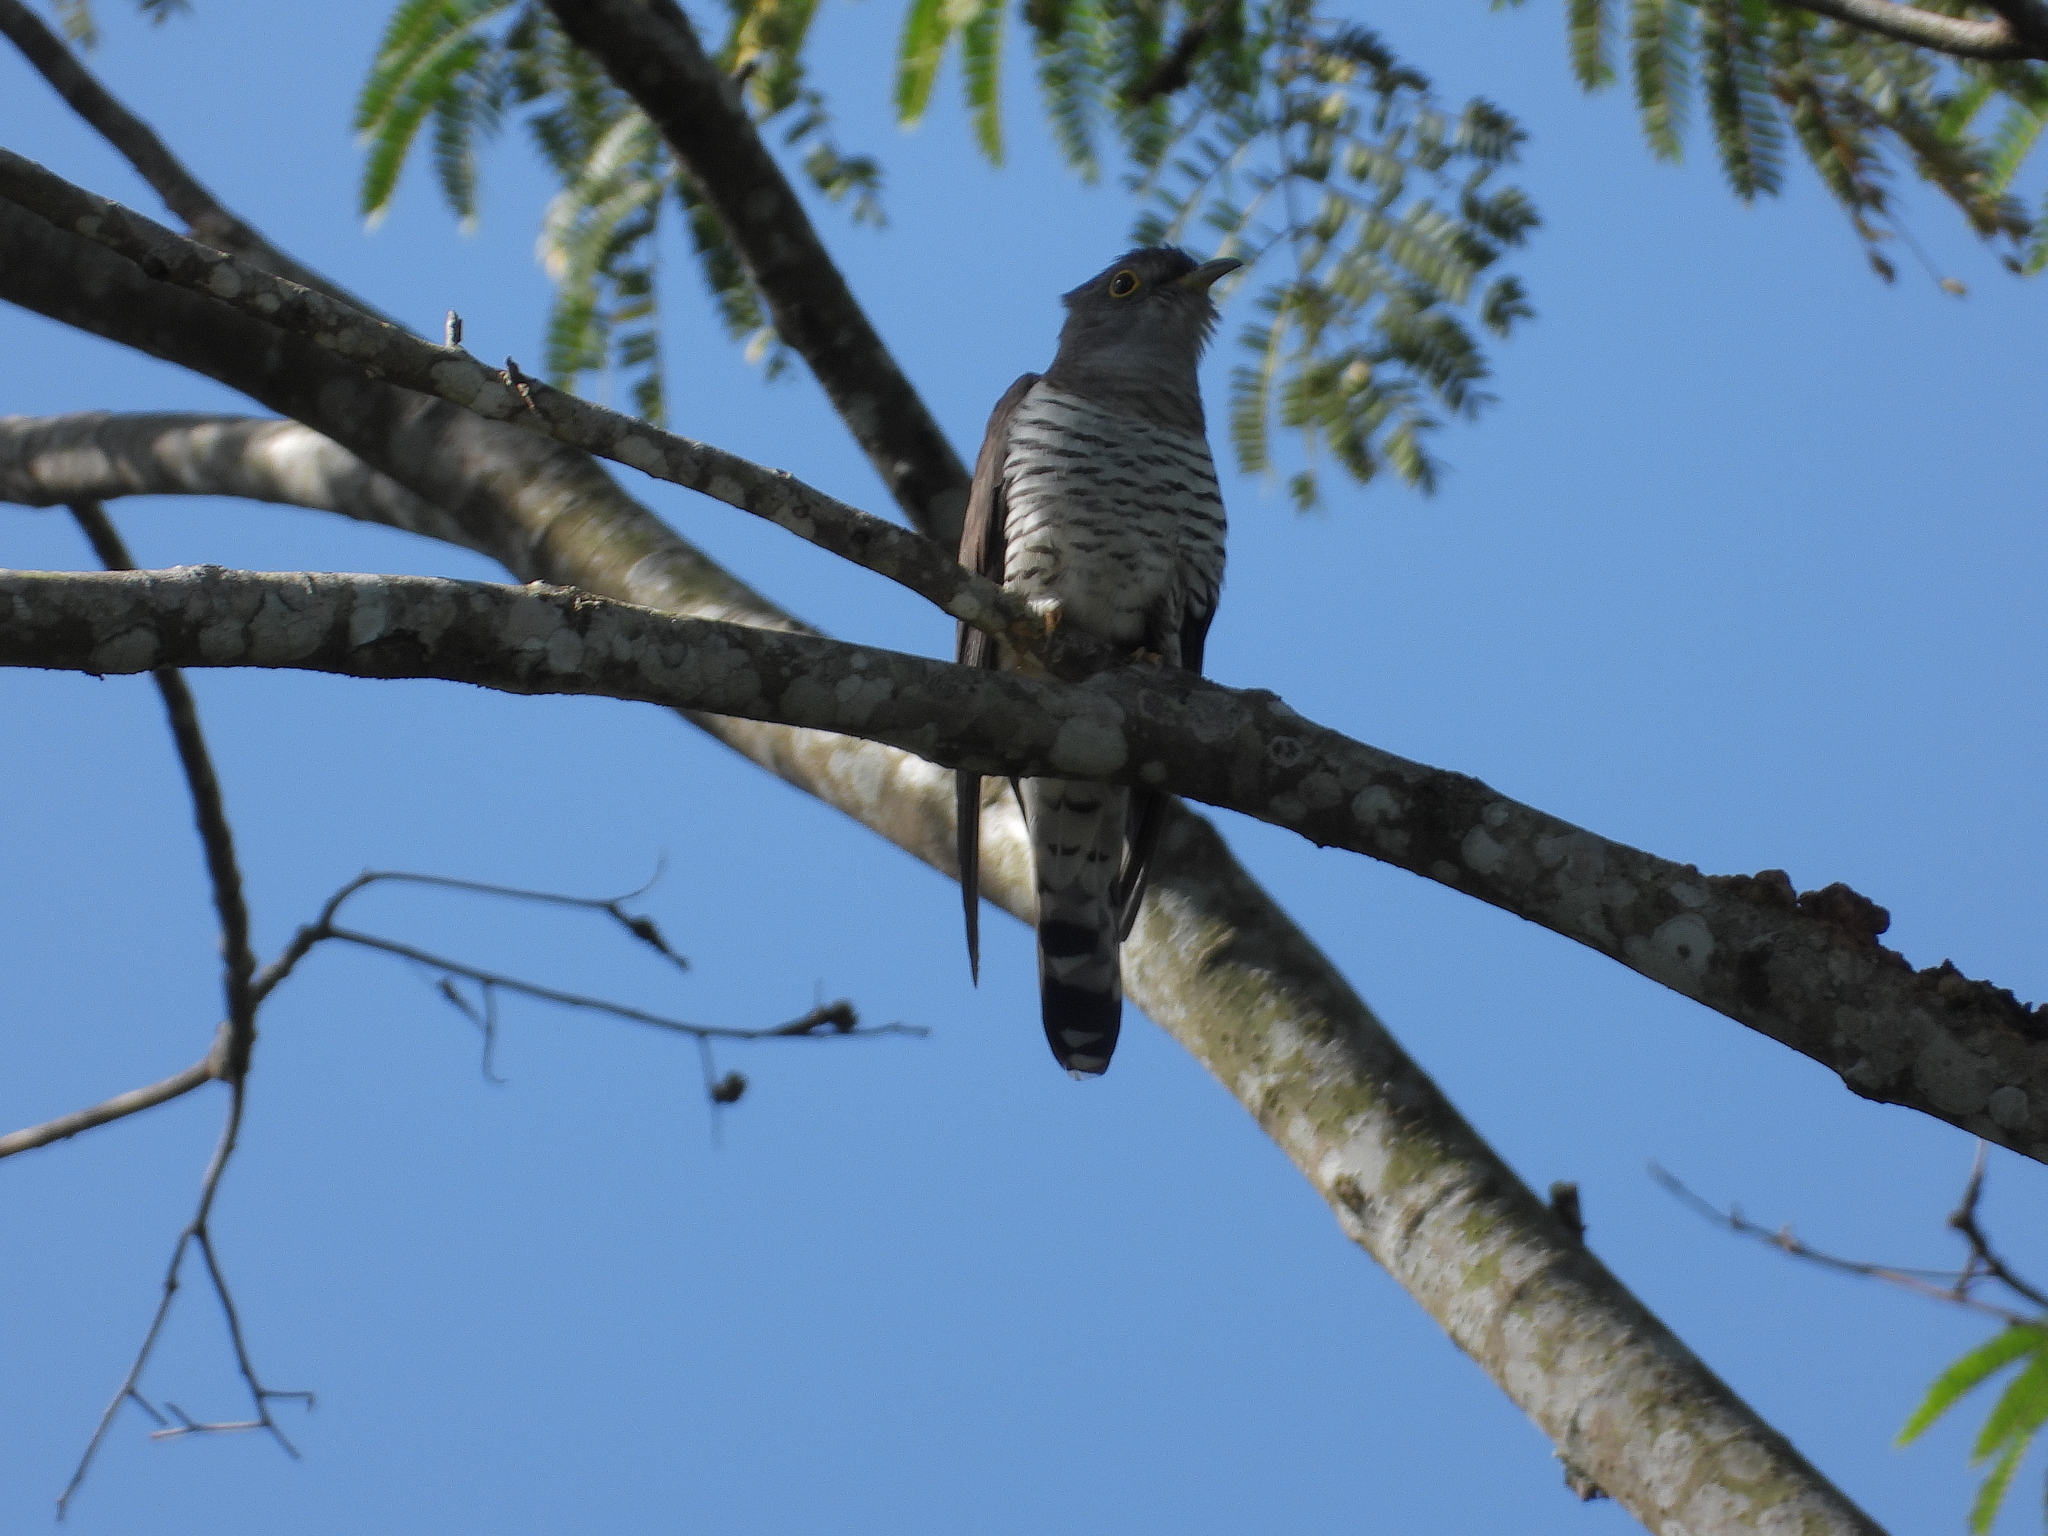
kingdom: Animalia
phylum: Chordata
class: Aves
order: Cuculiformes
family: Cuculidae
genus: Cuculus
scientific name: Cuculus micropterus
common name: Indian cuckoo
